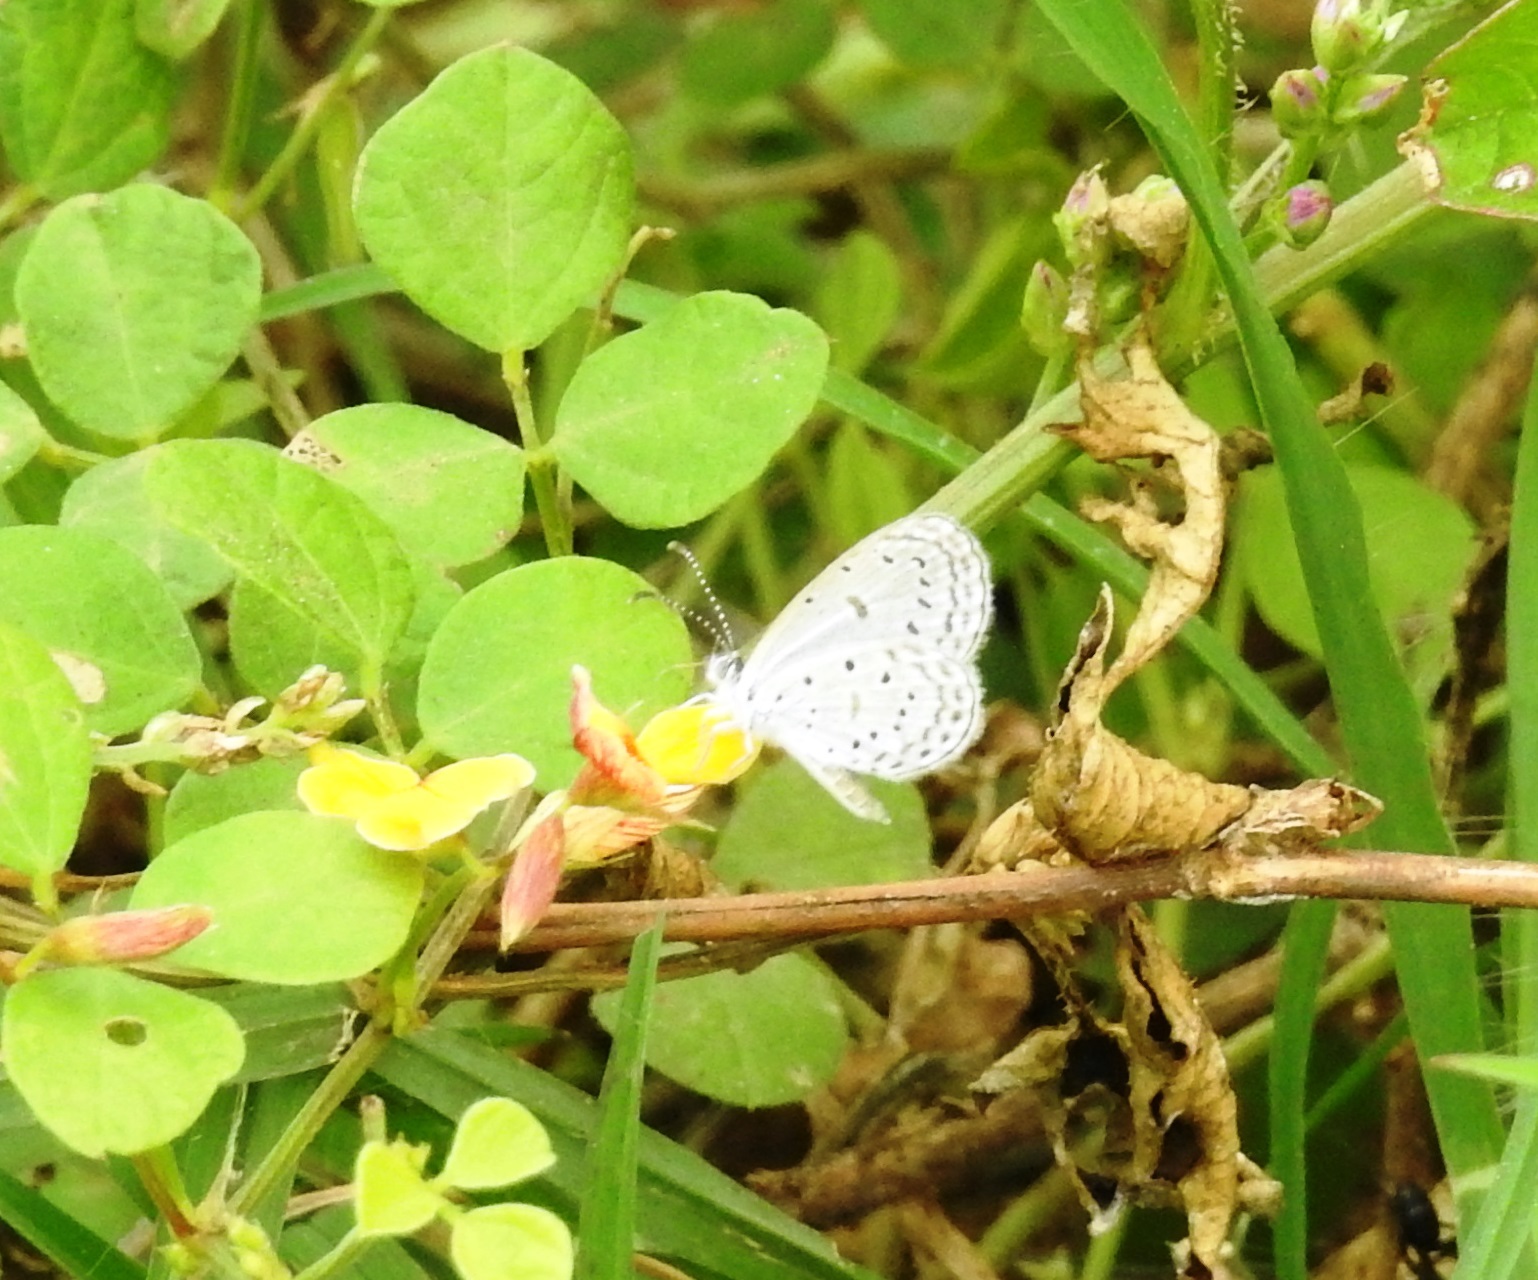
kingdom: Animalia
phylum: Arthropoda
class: Insecta
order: Lepidoptera
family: Lycaenidae
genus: Zizula
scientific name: Zizula hylax
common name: Gaika blue
